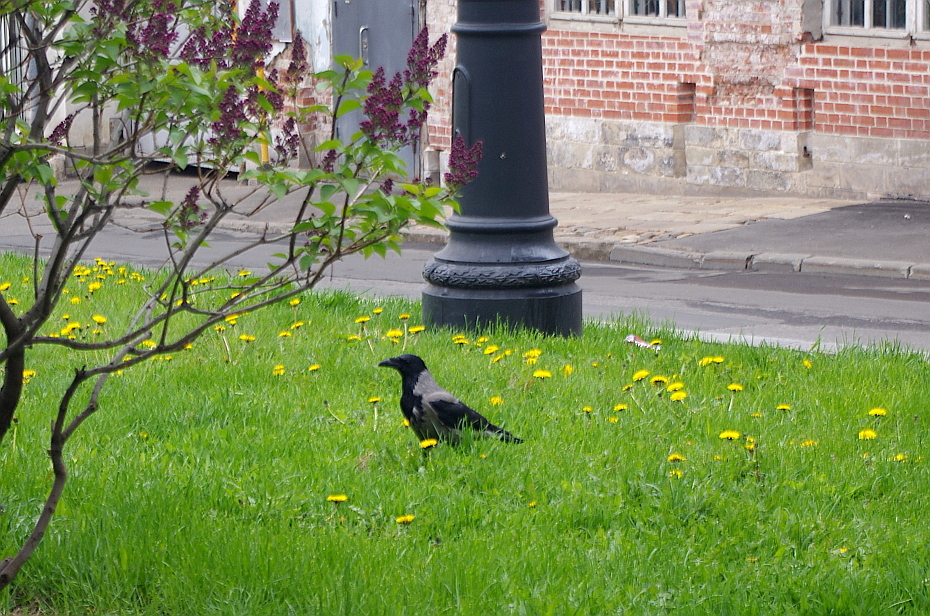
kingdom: Plantae
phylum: Tracheophyta
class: Magnoliopsida
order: Asterales
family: Asteraceae
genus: Taraxacum
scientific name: Taraxacum officinale
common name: Common dandelion
